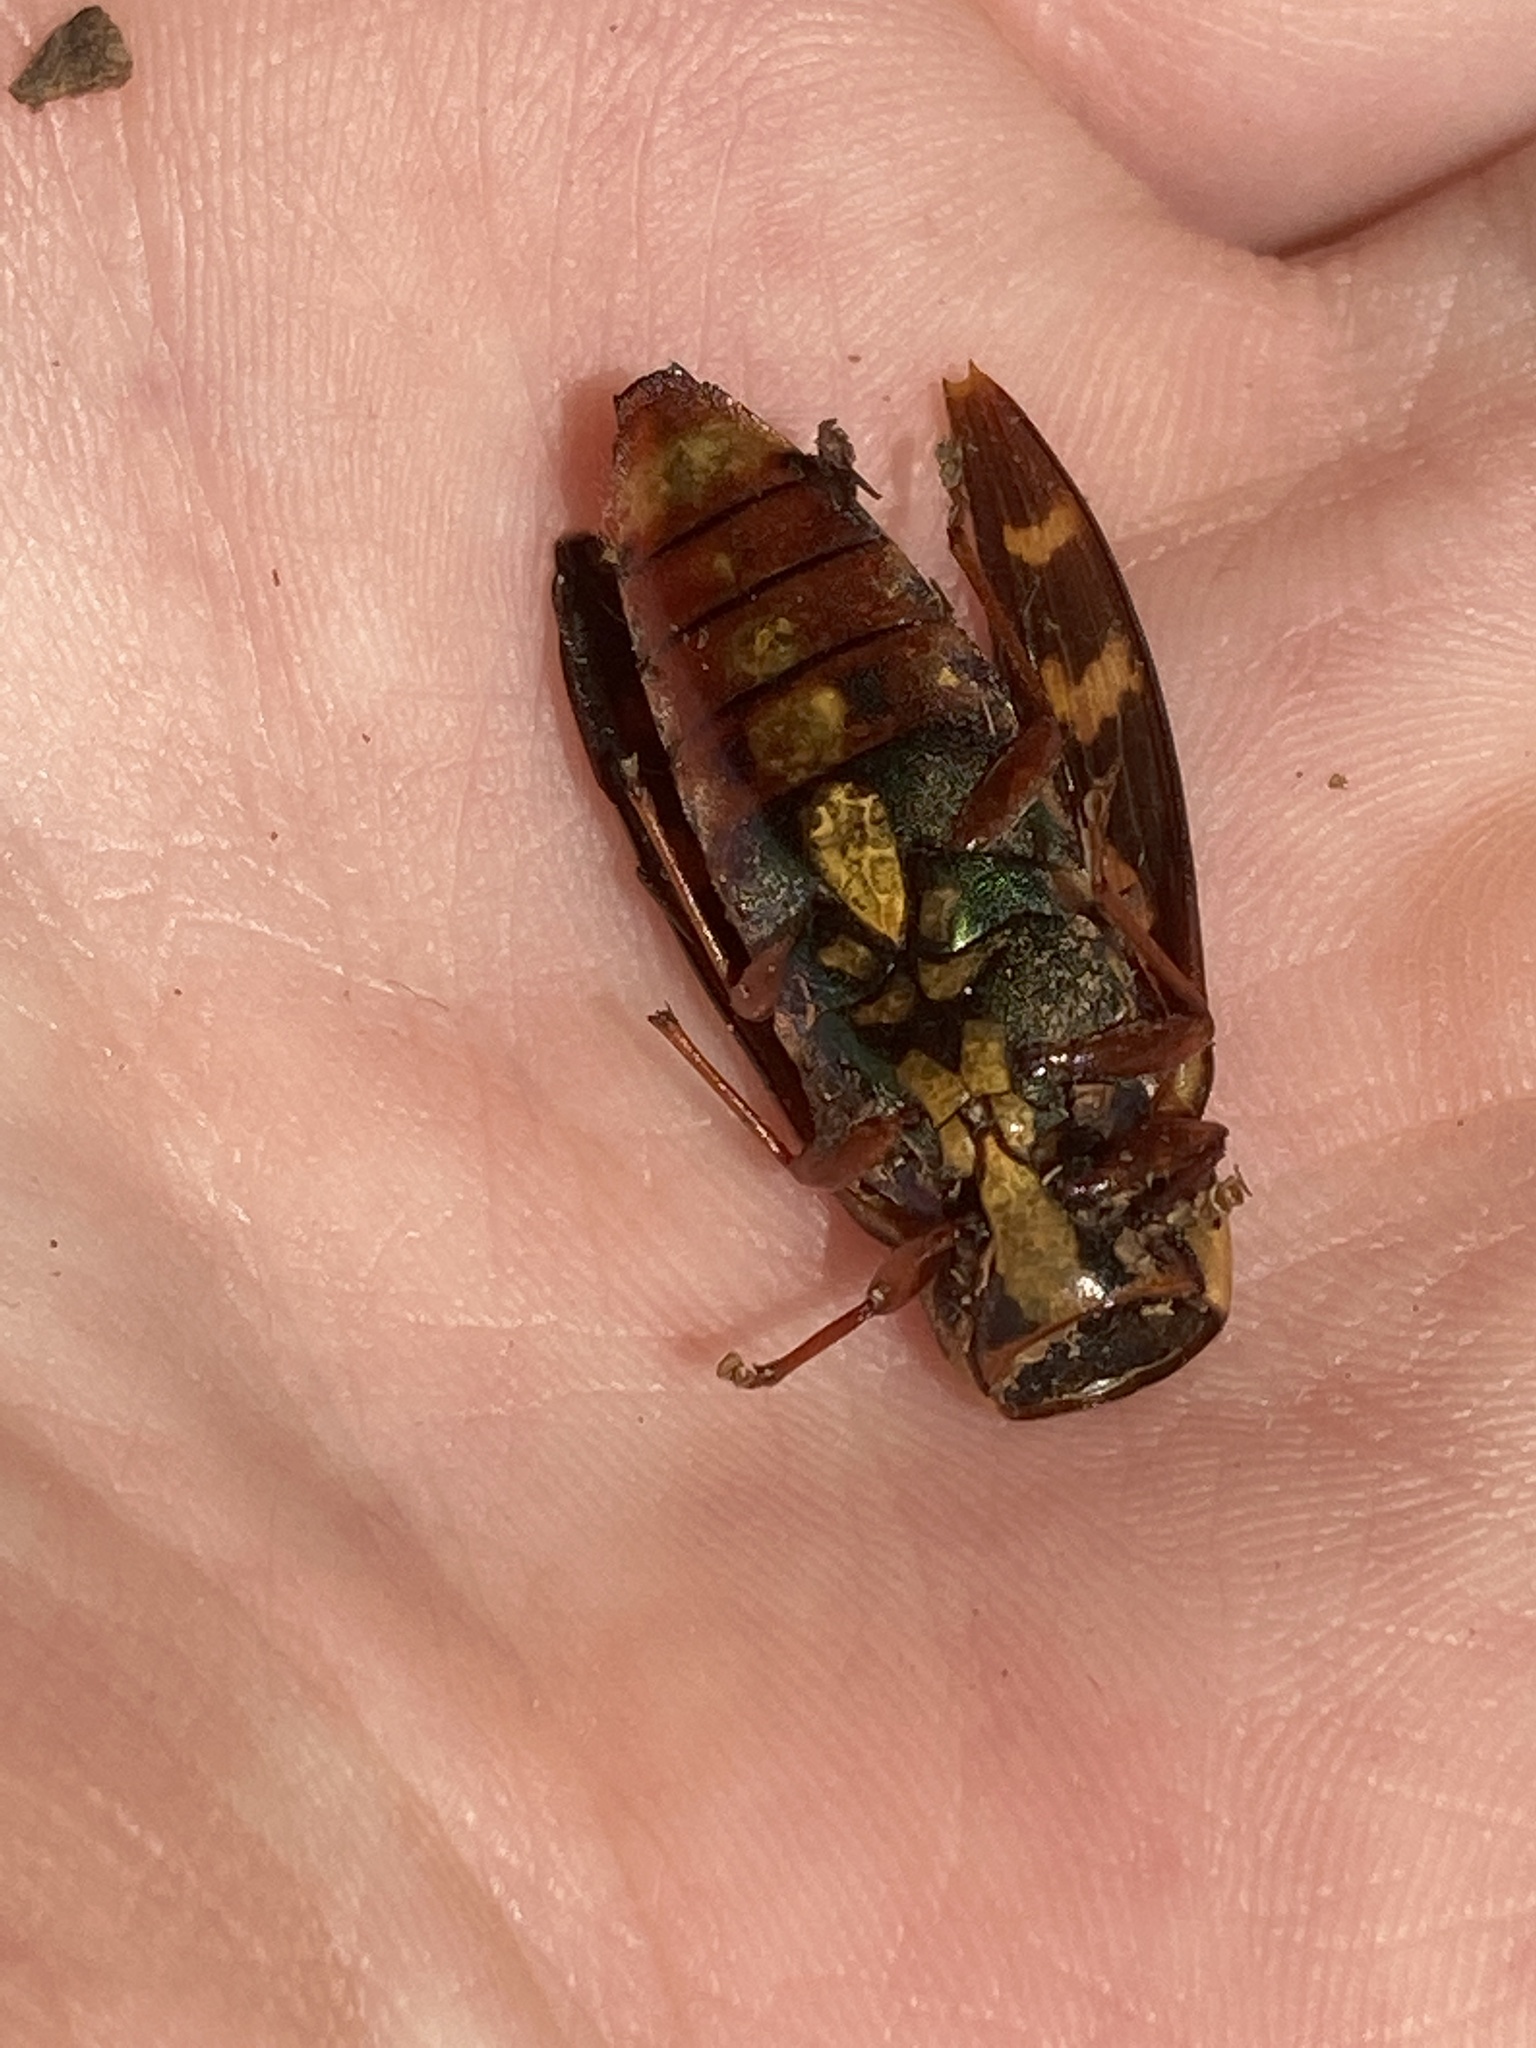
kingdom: Animalia
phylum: Arthropoda
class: Insecta
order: Coleoptera
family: Buprestidae
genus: Buprestis
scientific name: Buprestis rufipes
